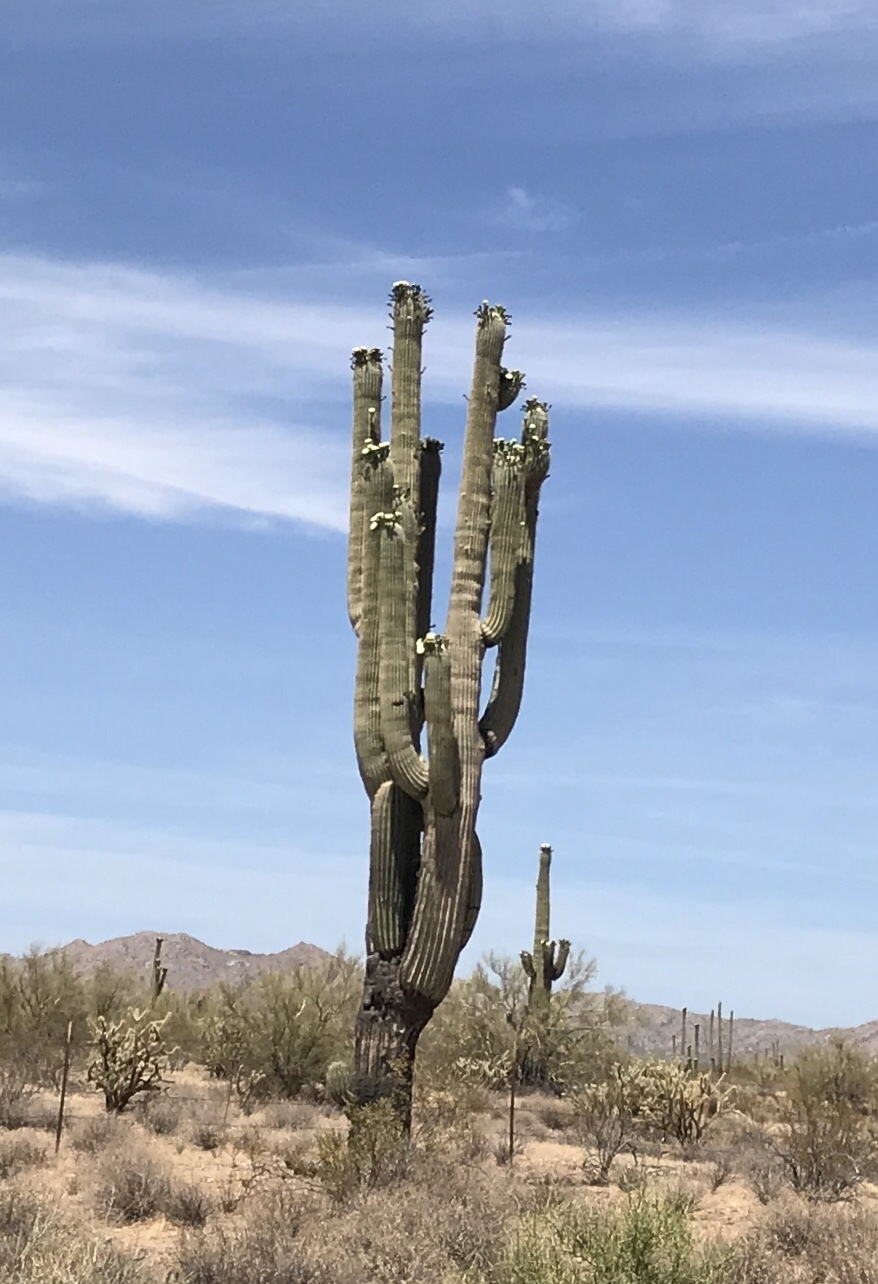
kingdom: Plantae
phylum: Tracheophyta
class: Magnoliopsida
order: Caryophyllales
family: Cactaceae
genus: Carnegiea
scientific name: Carnegiea gigantea
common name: Saguaro
